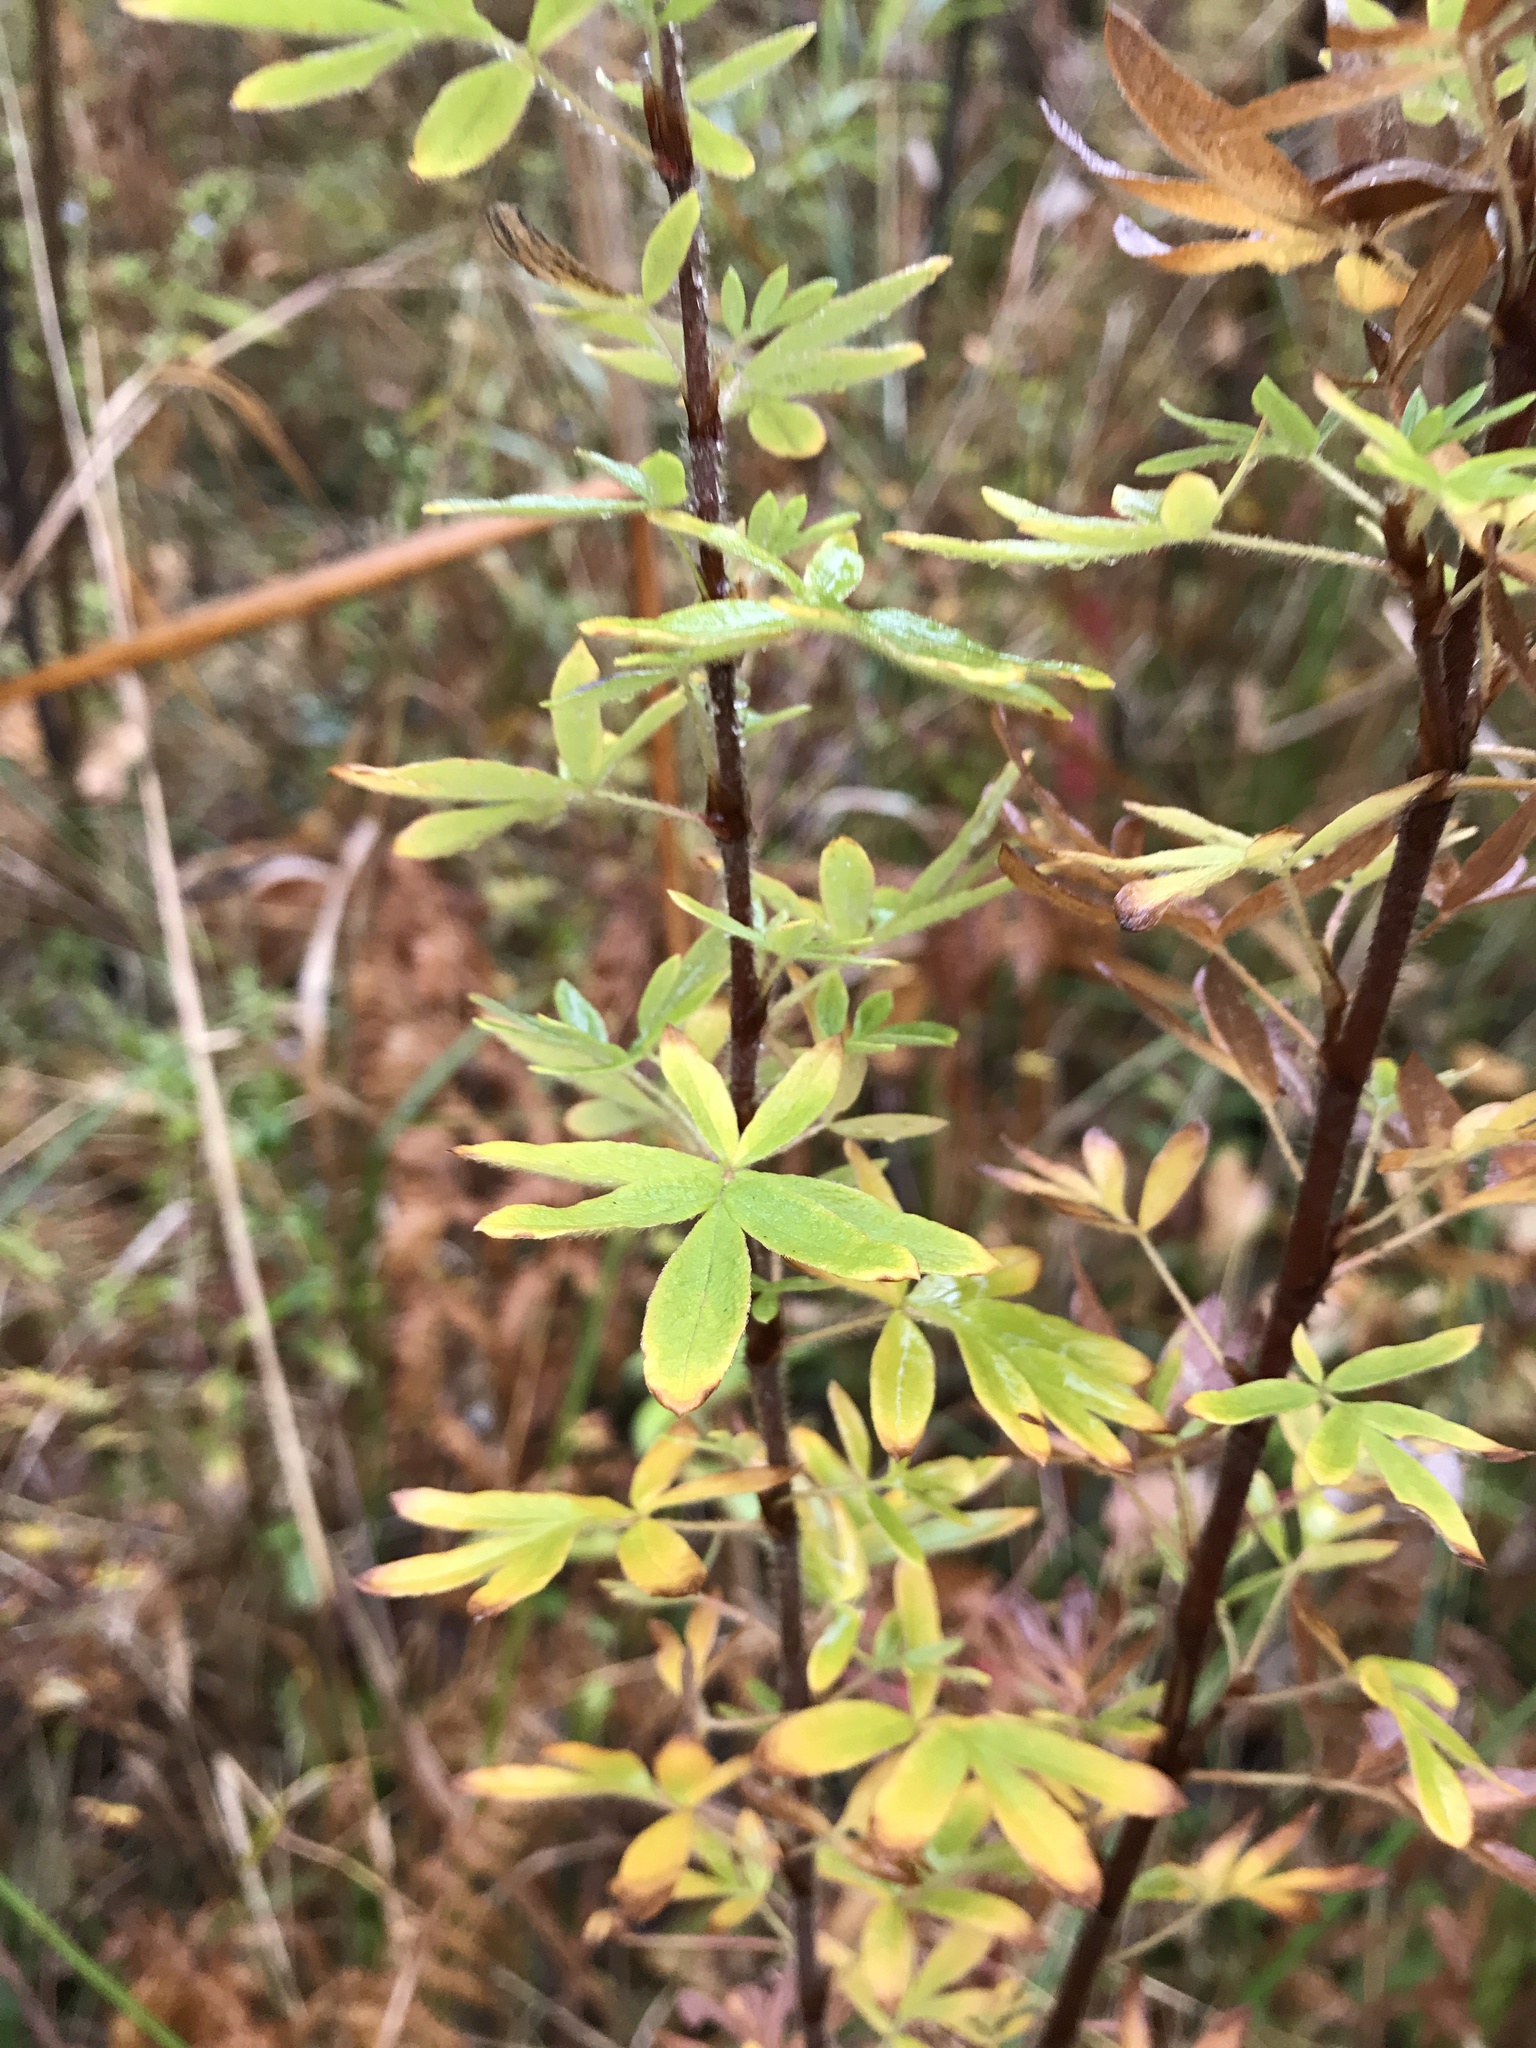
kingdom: Plantae
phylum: Tracheophyta
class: Magnoliopsida
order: Rosales
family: Rosaceae
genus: Dasiphora
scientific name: Dasiphora fruticosa
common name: Shrubby cinquefoil
